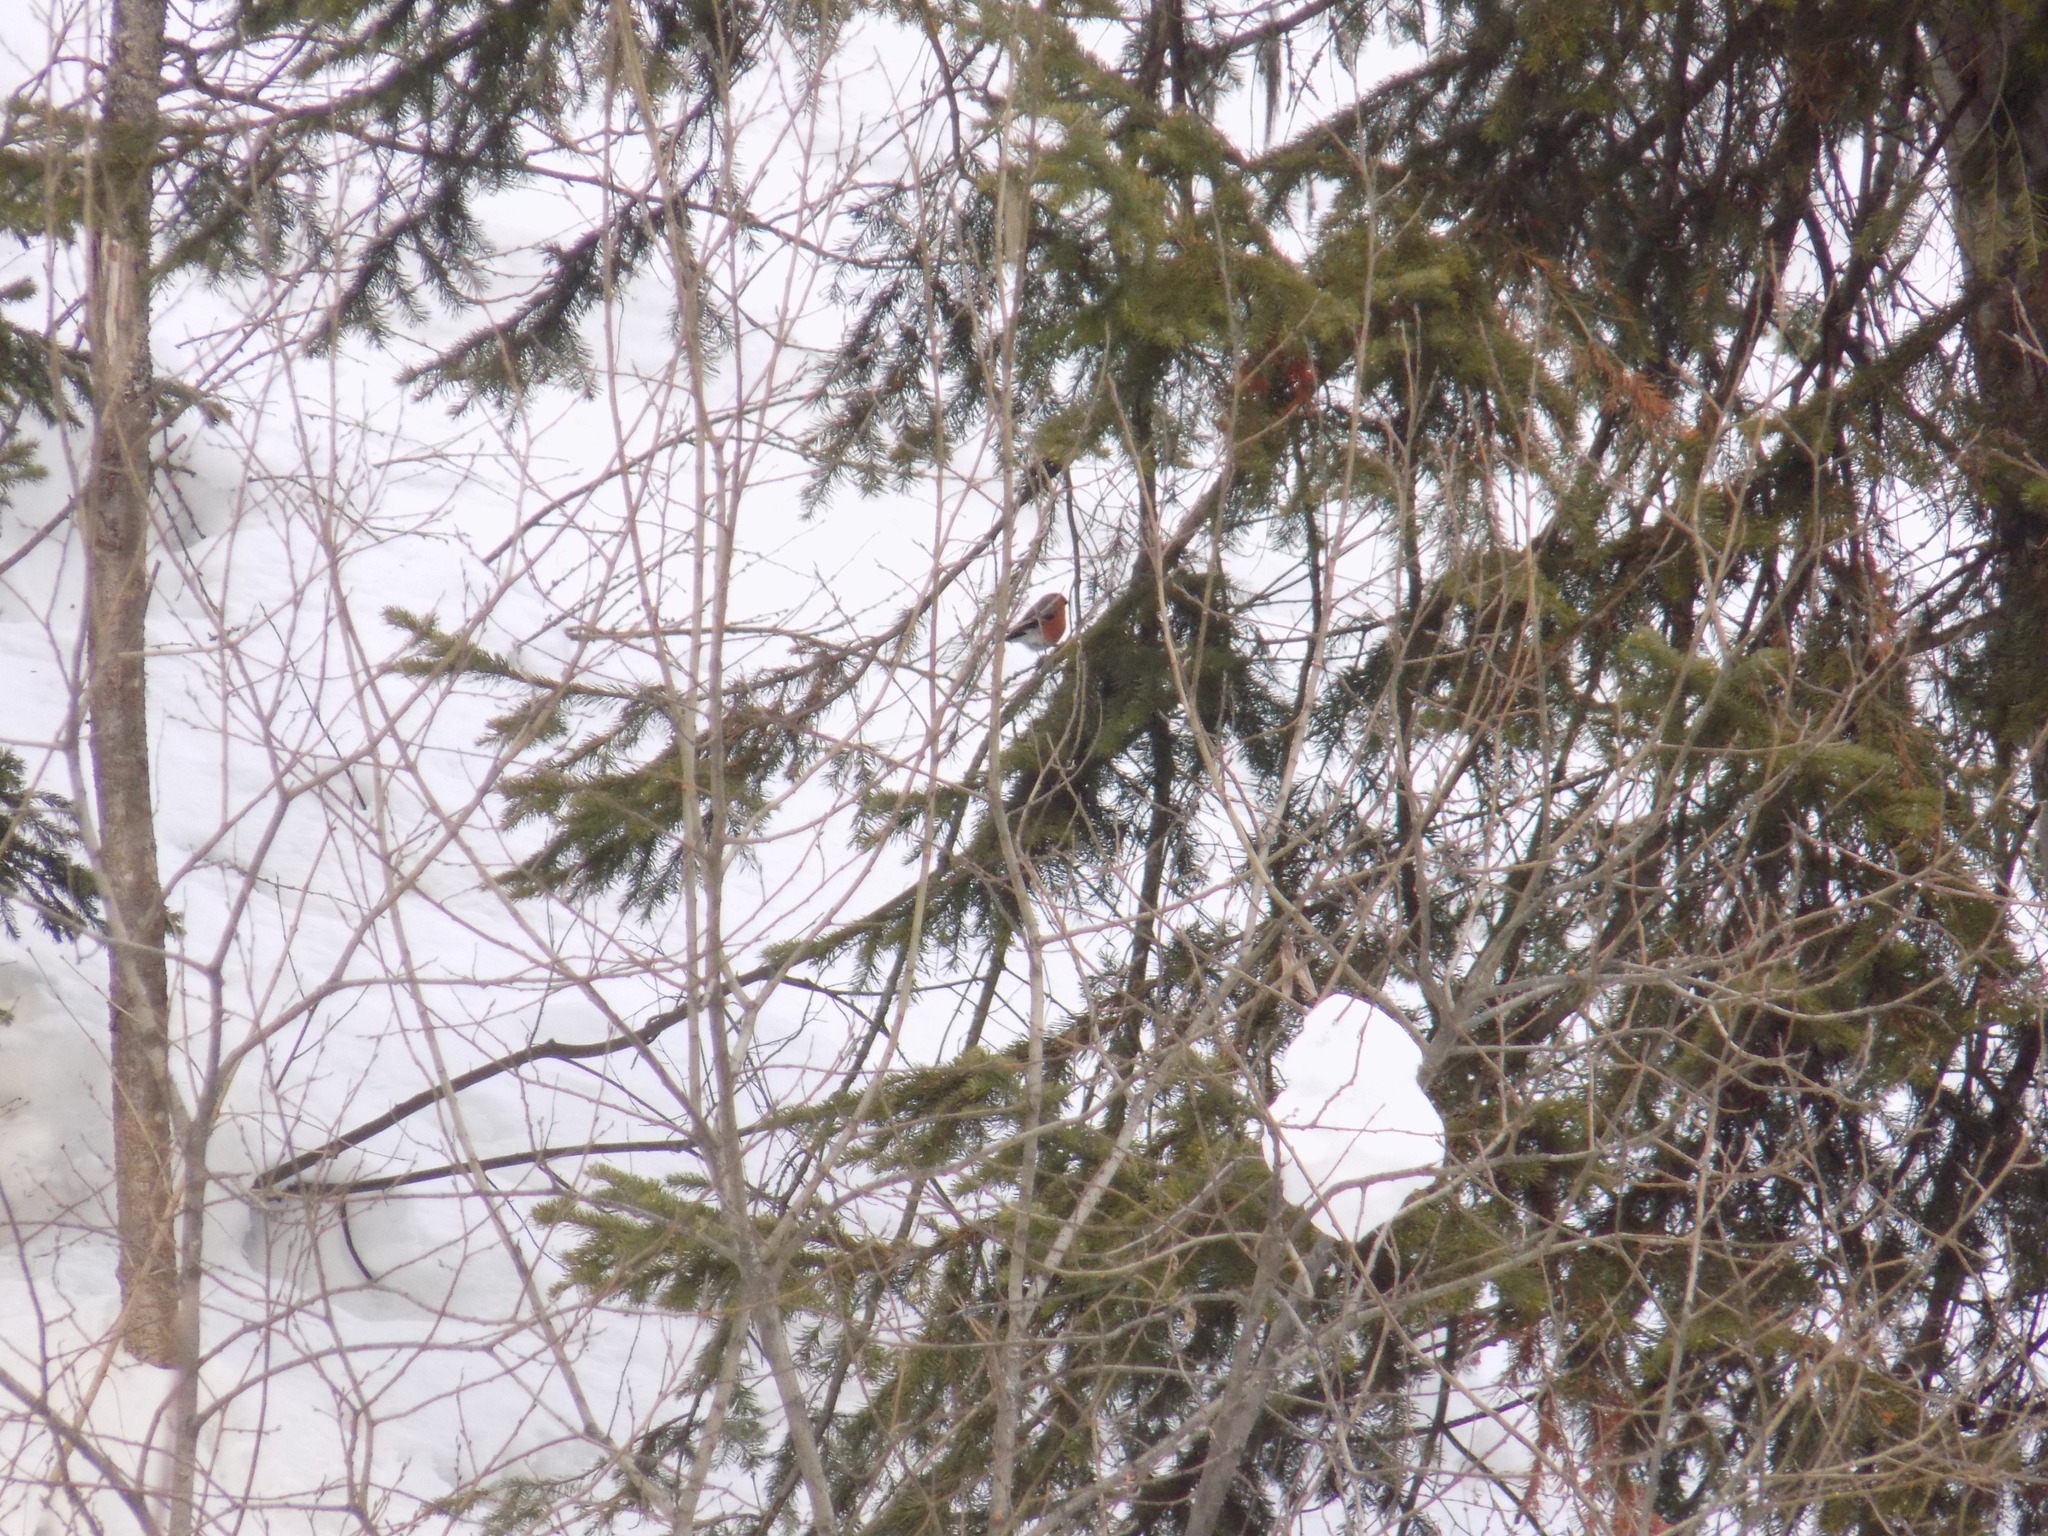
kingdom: Animalia
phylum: Chordata
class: Aves
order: Passeriformes
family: Fringillidae
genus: Pyrrhula
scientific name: Pyrrhula pyrrhula
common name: Eurasian bullfinch
